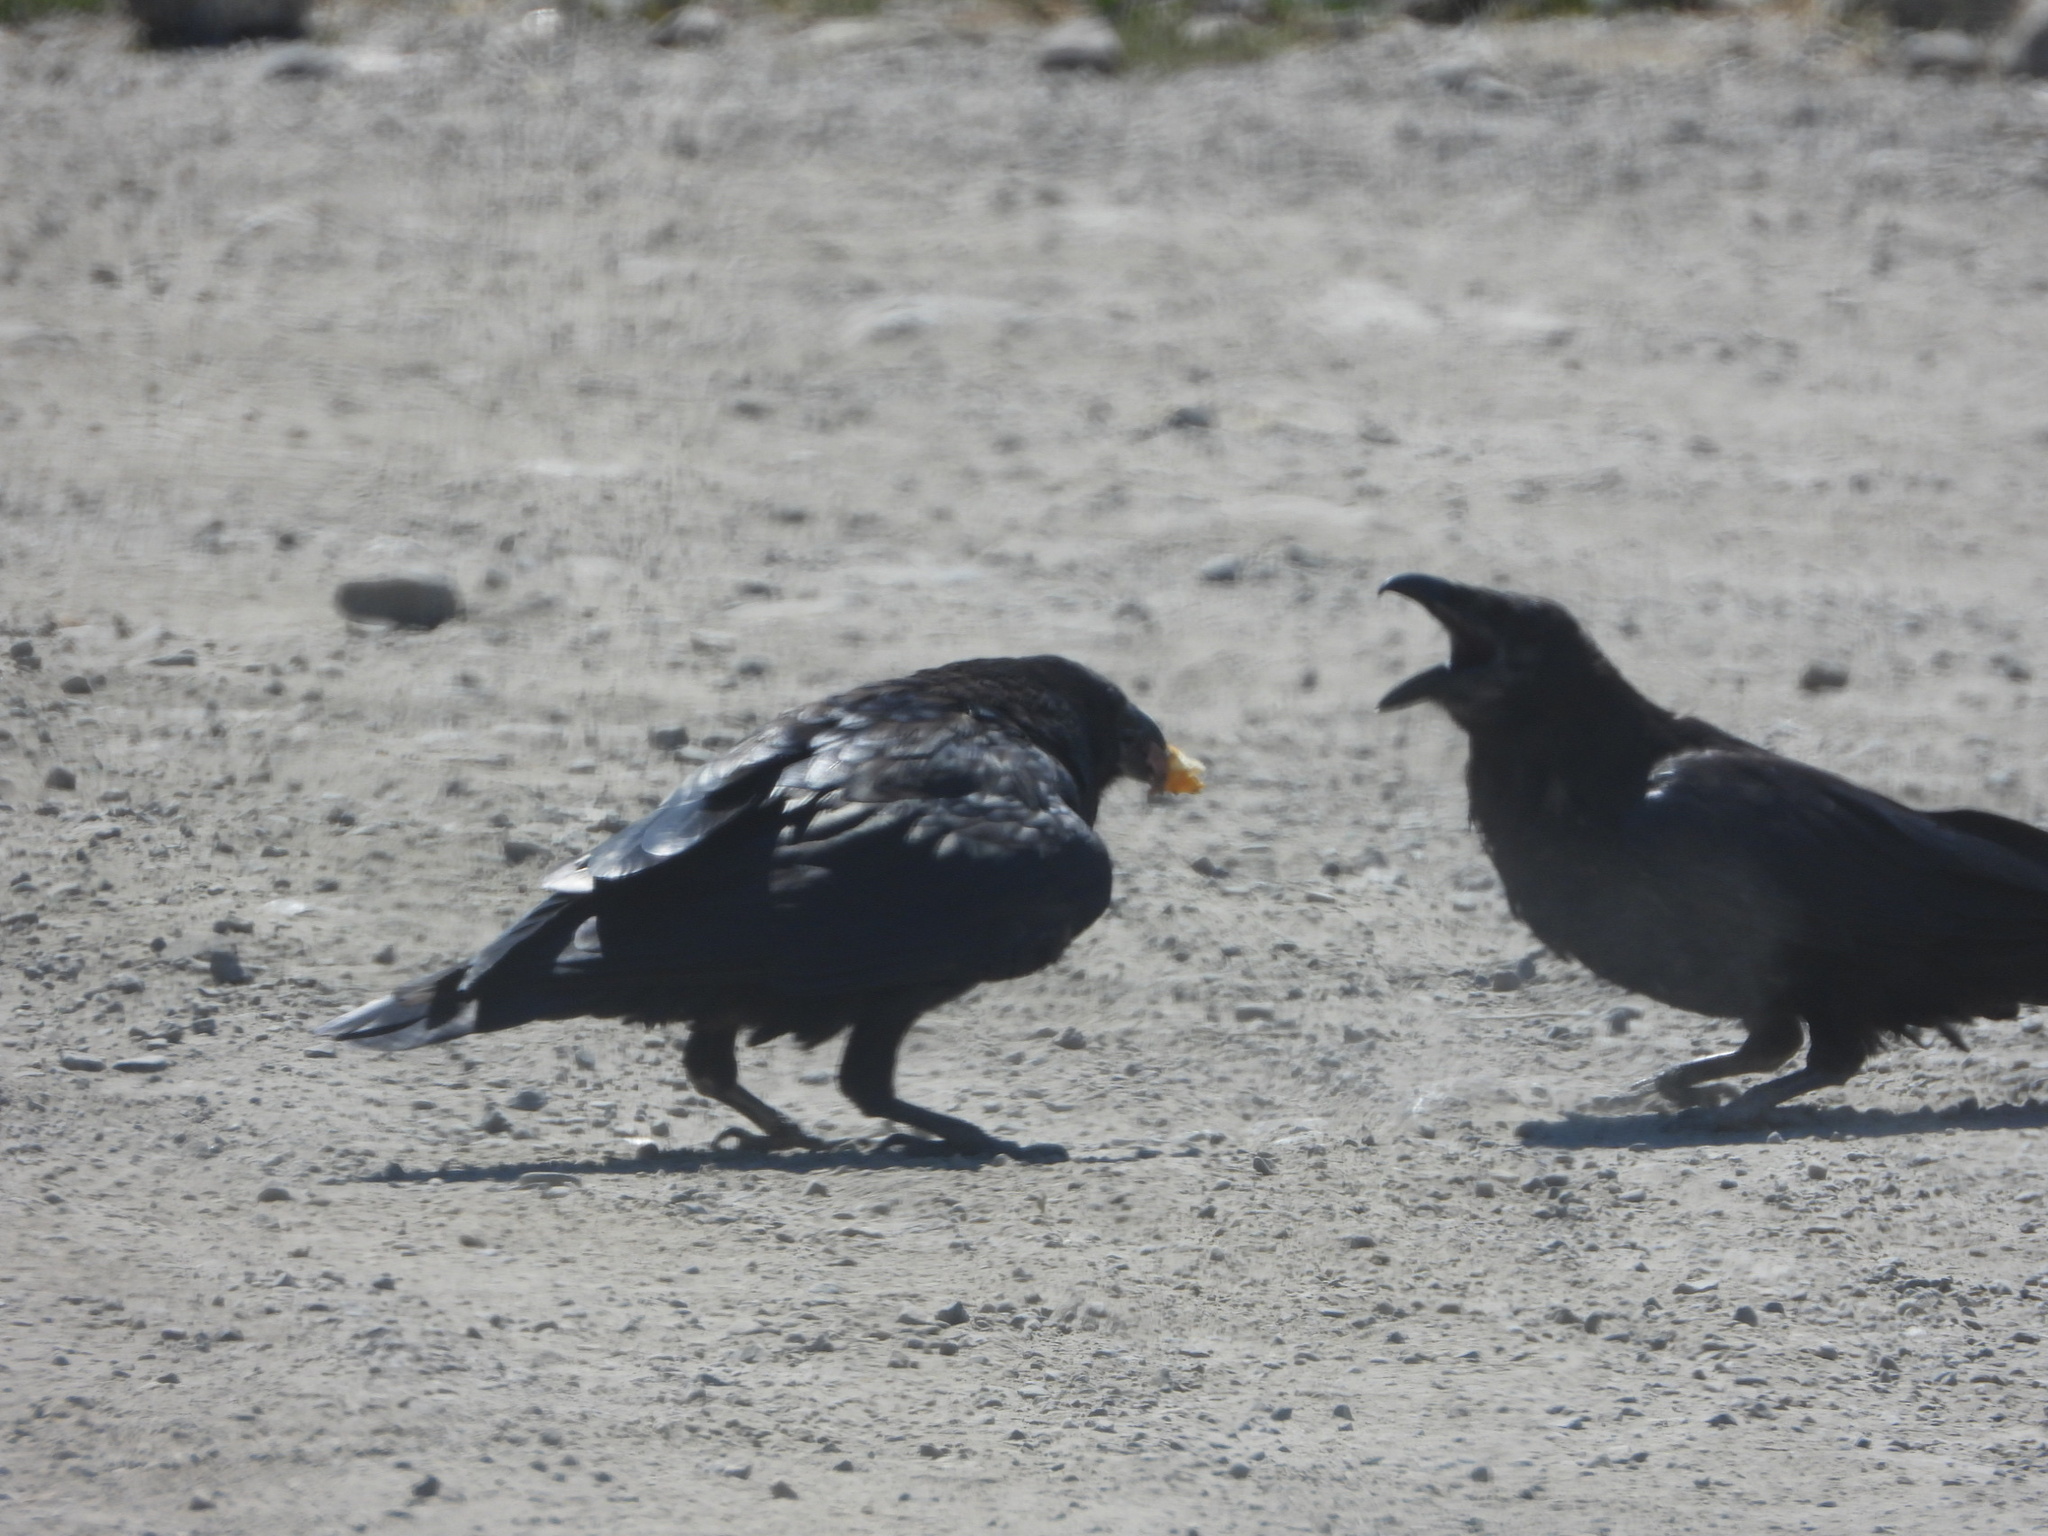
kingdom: Animalia
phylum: Chordata
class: Aves
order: Passeriformes
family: Corvidae
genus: Corvus
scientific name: Corvus corax
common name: Common raven
